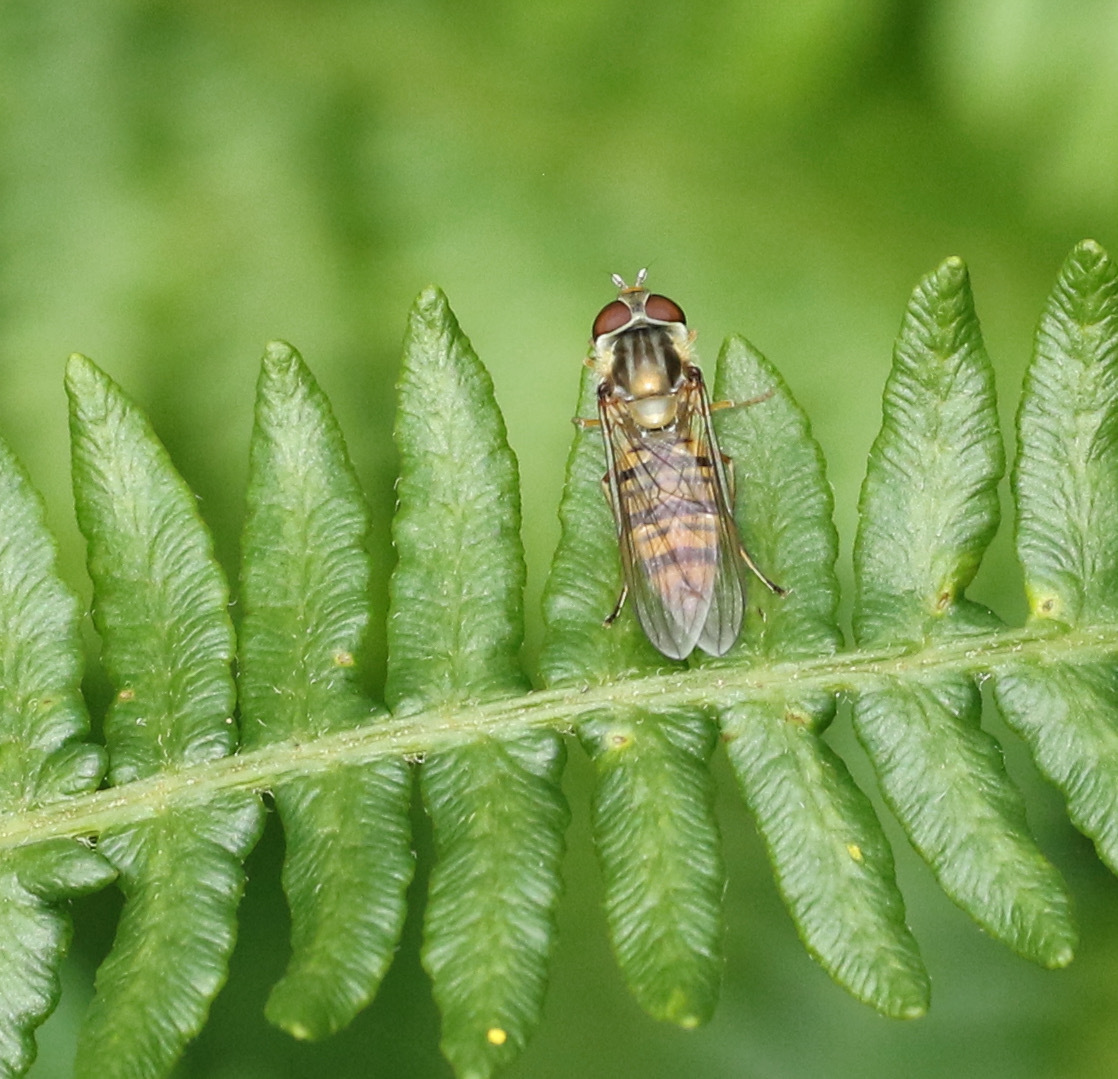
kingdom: Animalia
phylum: Arthropoda
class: Insecta
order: Diptera
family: Syrphidae
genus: Episyrphus
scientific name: Episyrphus balteatus
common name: Marmalade hoverfly
